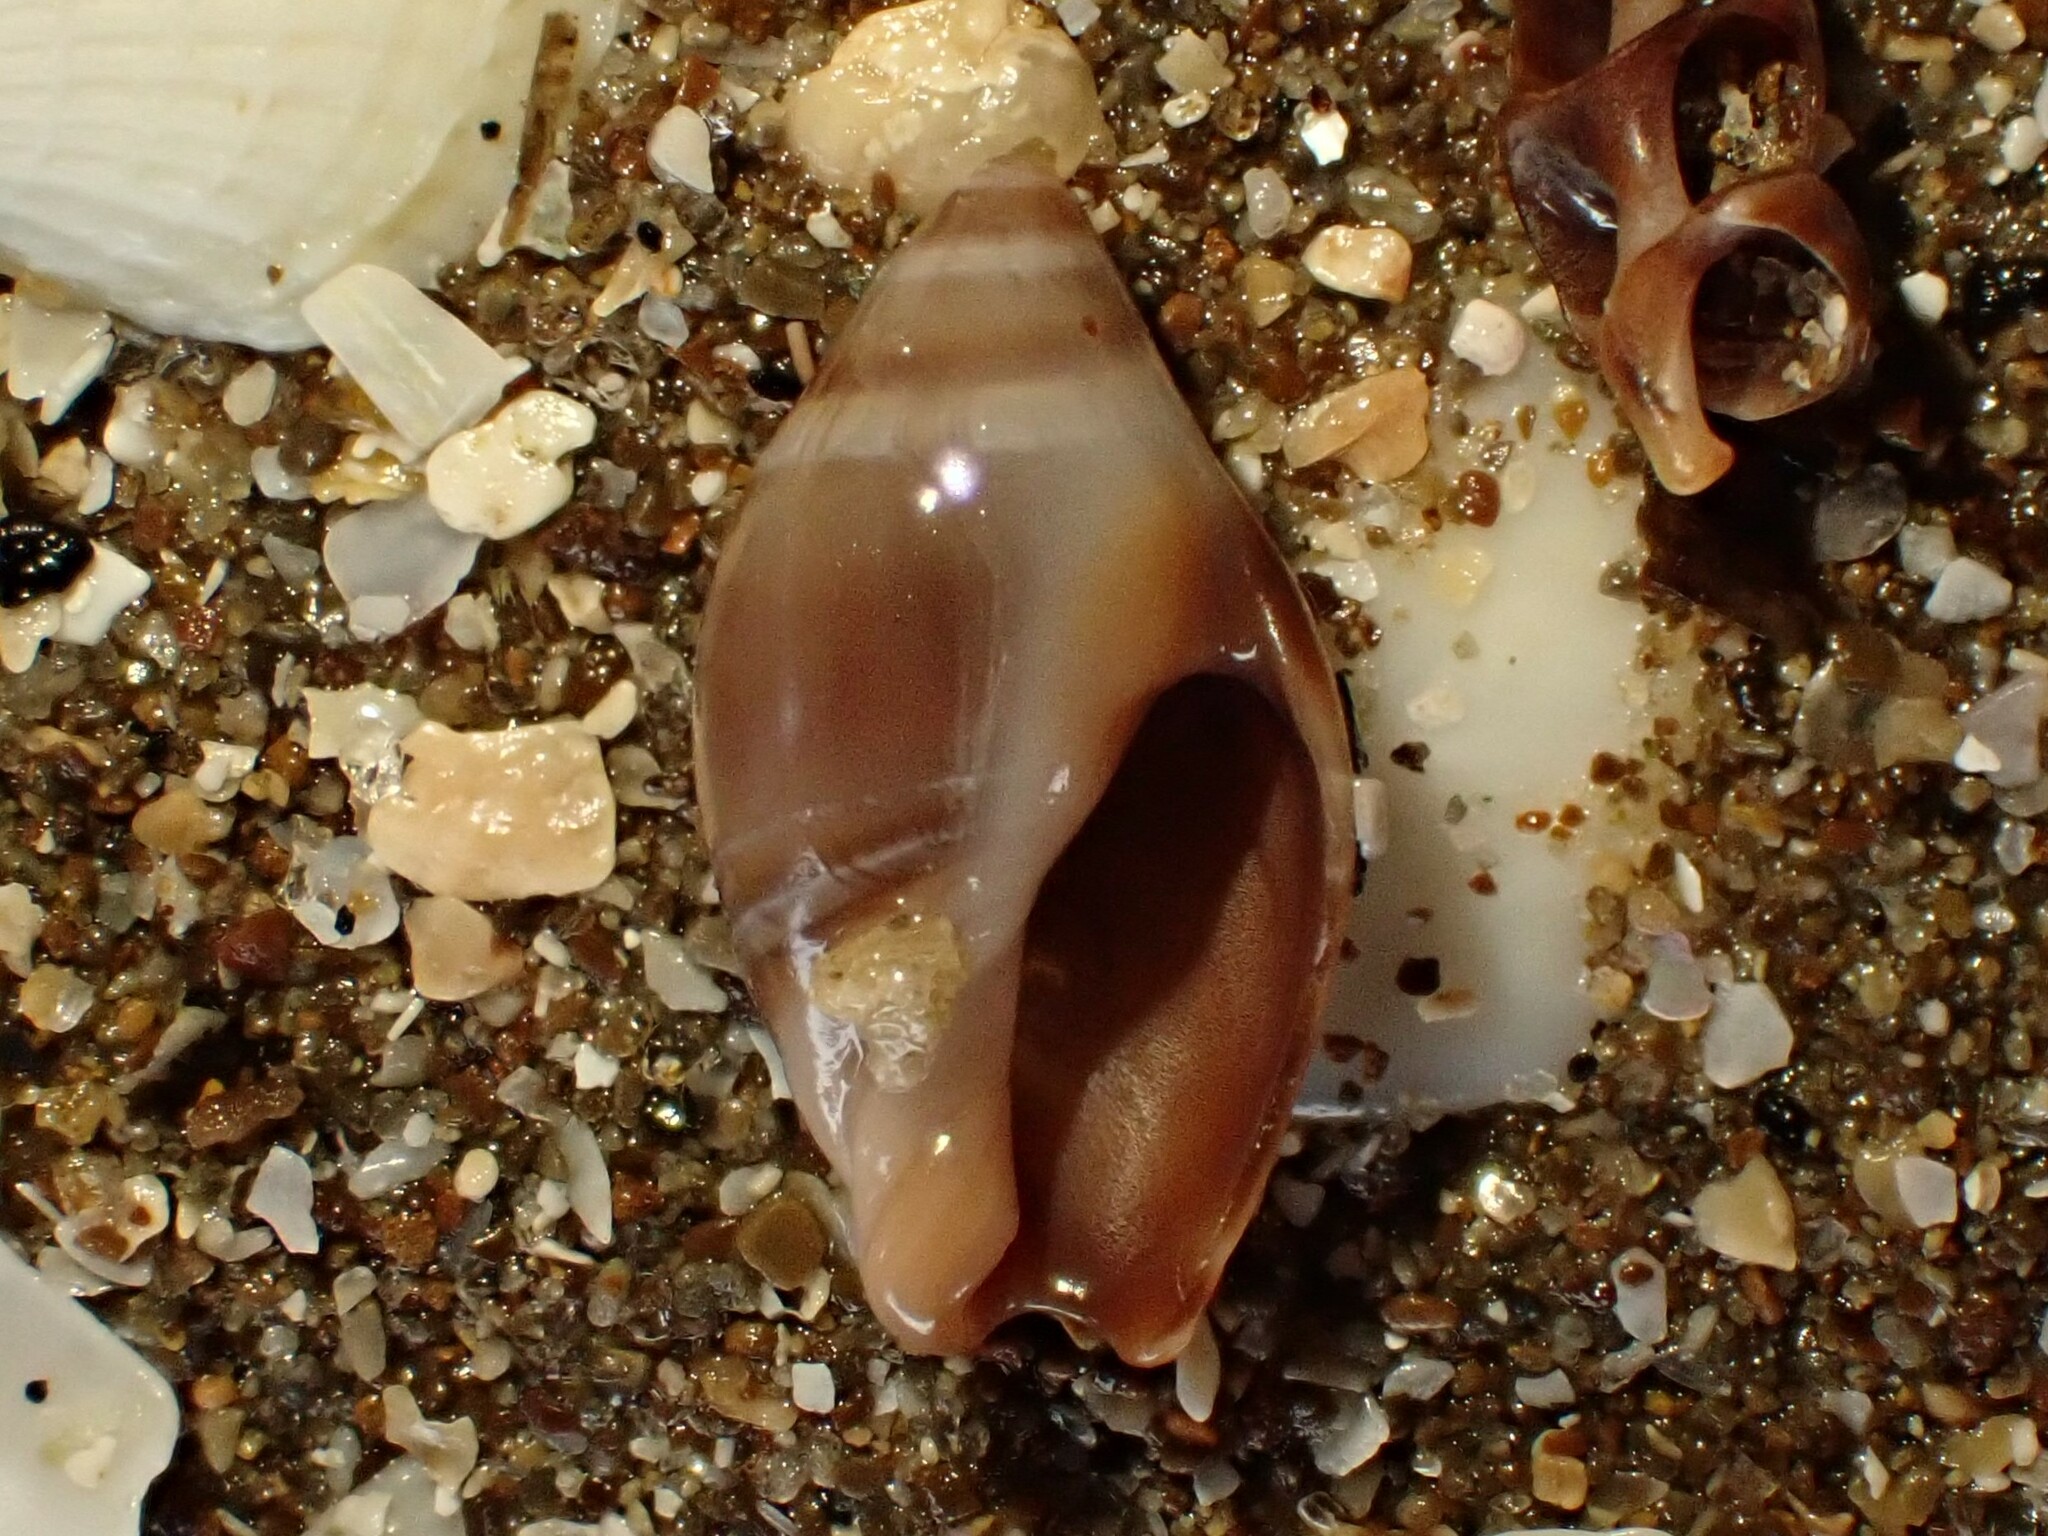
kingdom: Animalia
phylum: Mollusca
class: Gastropoda
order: Neogastropoda
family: Ancillariidae
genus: Amalda
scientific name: Amalda depressa
